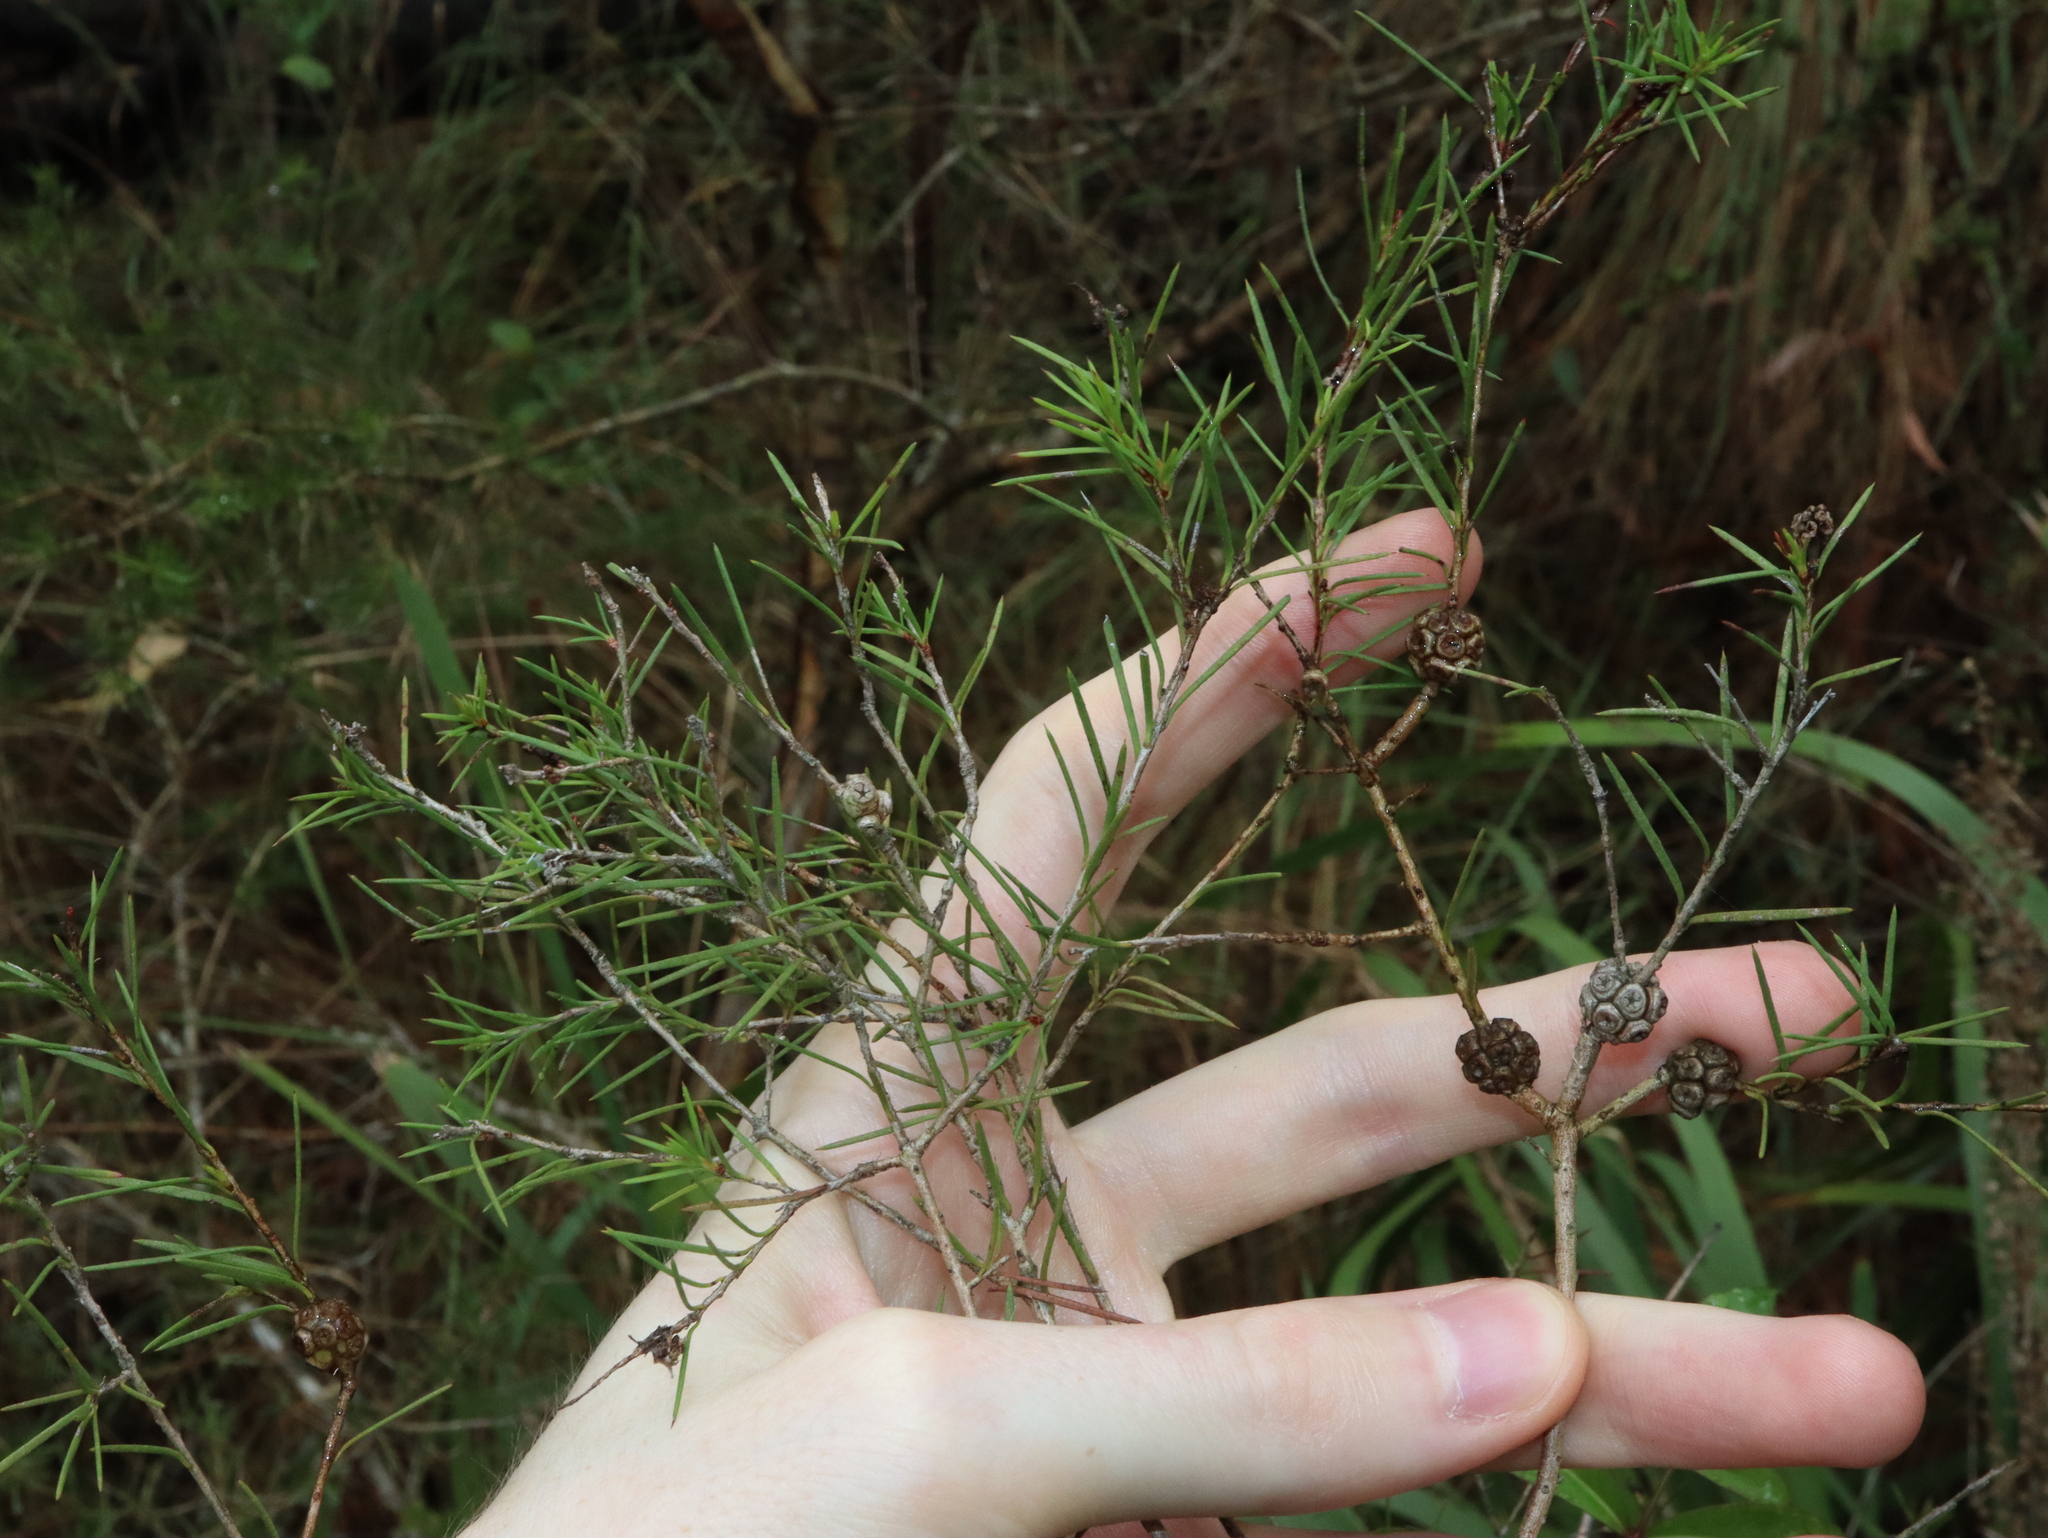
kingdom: Plantae
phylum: Tracheophyta
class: Magnoliopsida
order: Myrtales
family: Myrtaceae
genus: Melaleuca
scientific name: Melaleuca nodosa
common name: Prickly-leaf paperbark
